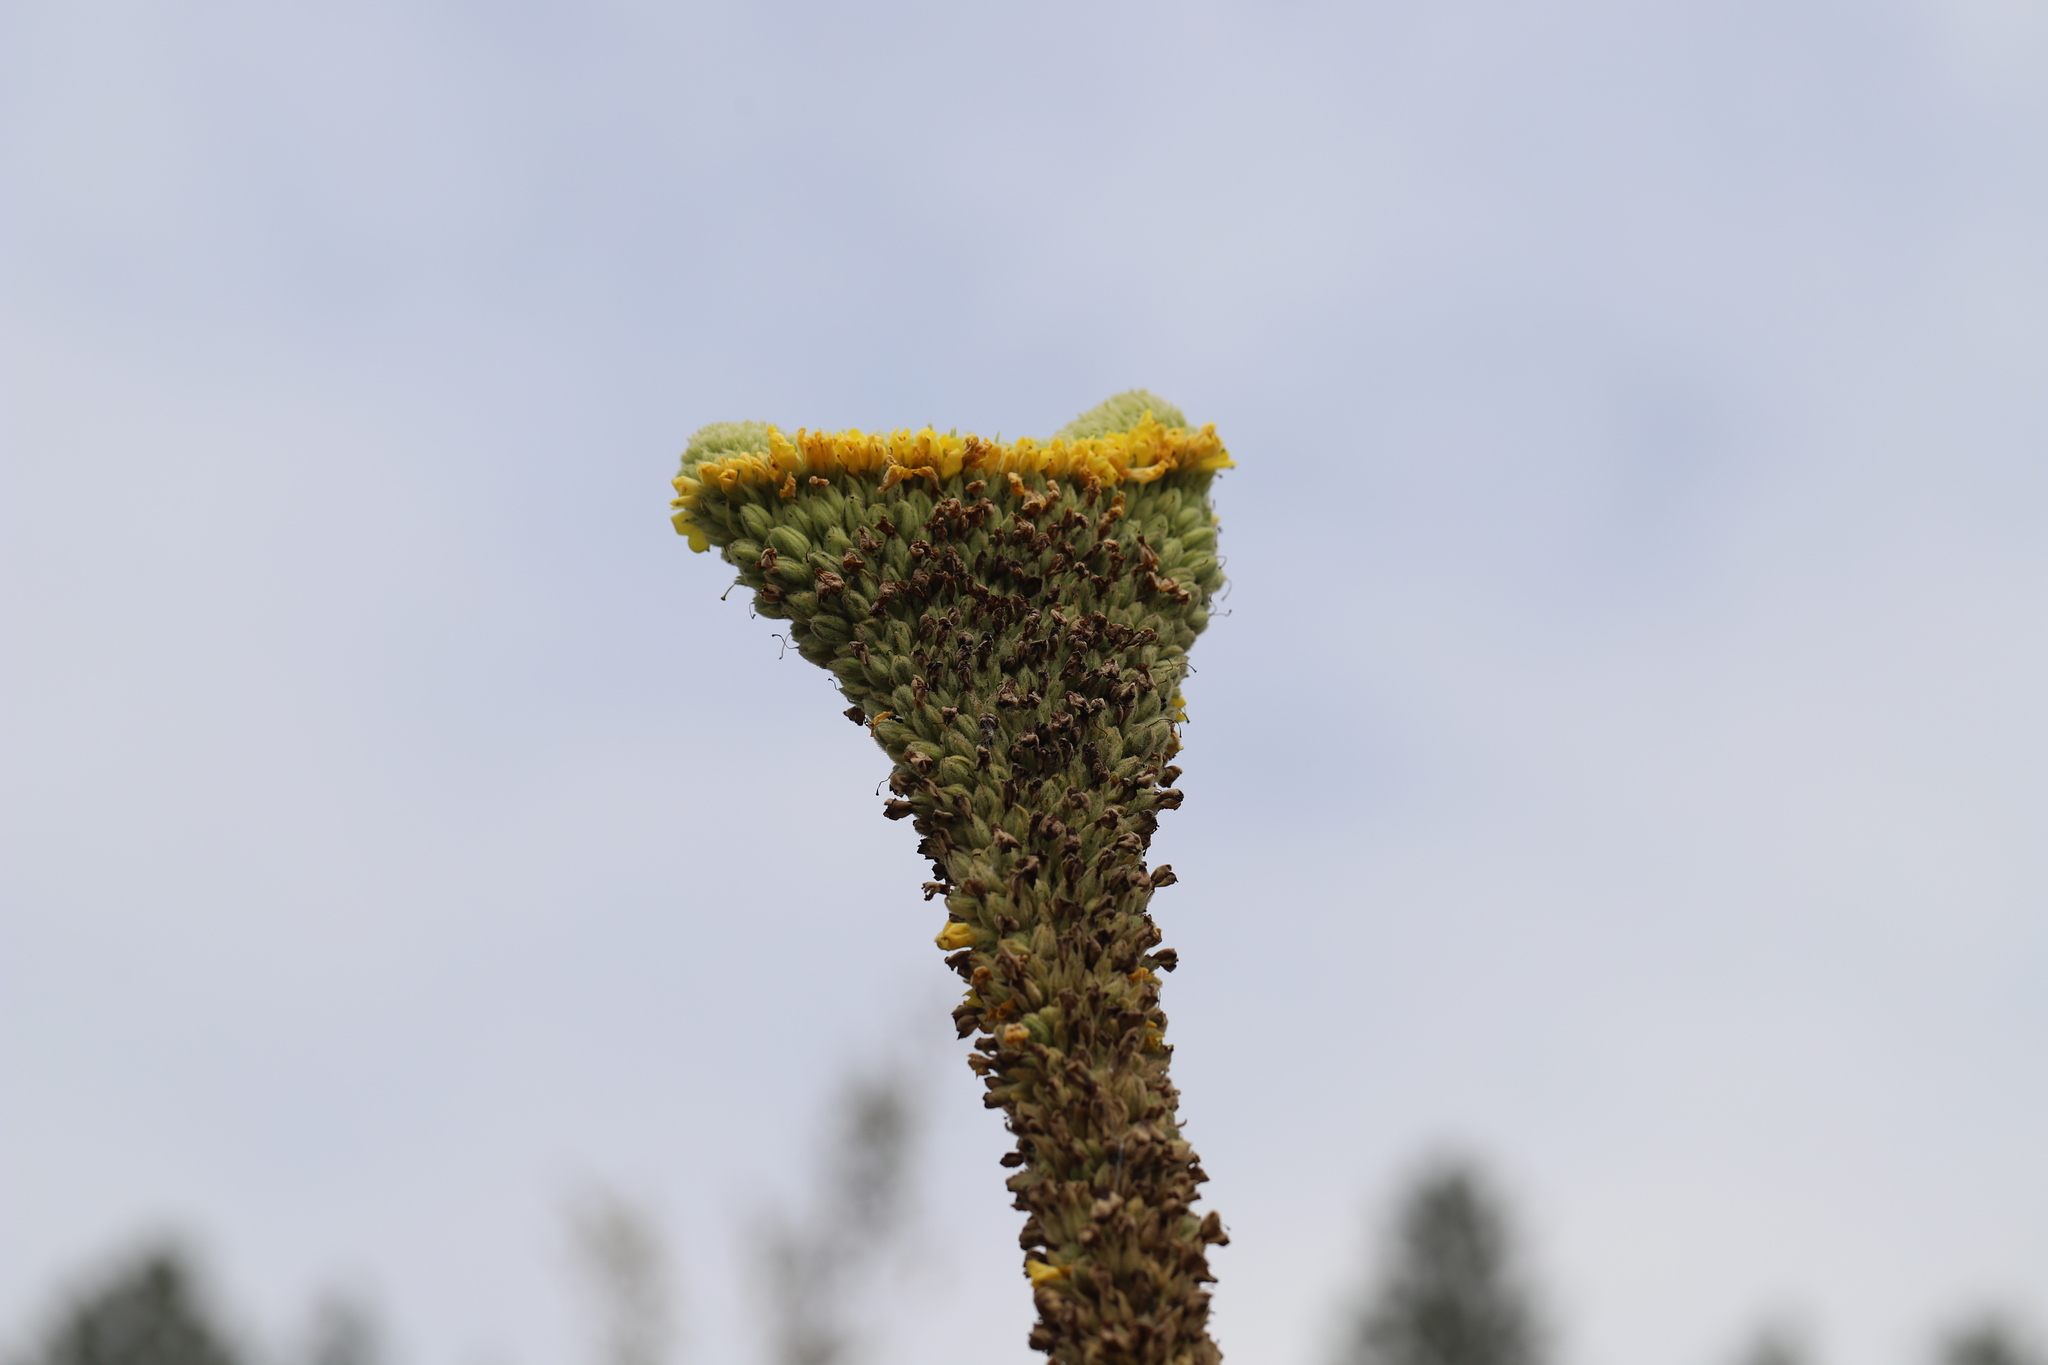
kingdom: Plantae
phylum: Tracheophyta
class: Magnoliopsida
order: Lamiales
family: Scrophulariaceae
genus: Verbascum
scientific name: Verbascum thapsus
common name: Common mullein
